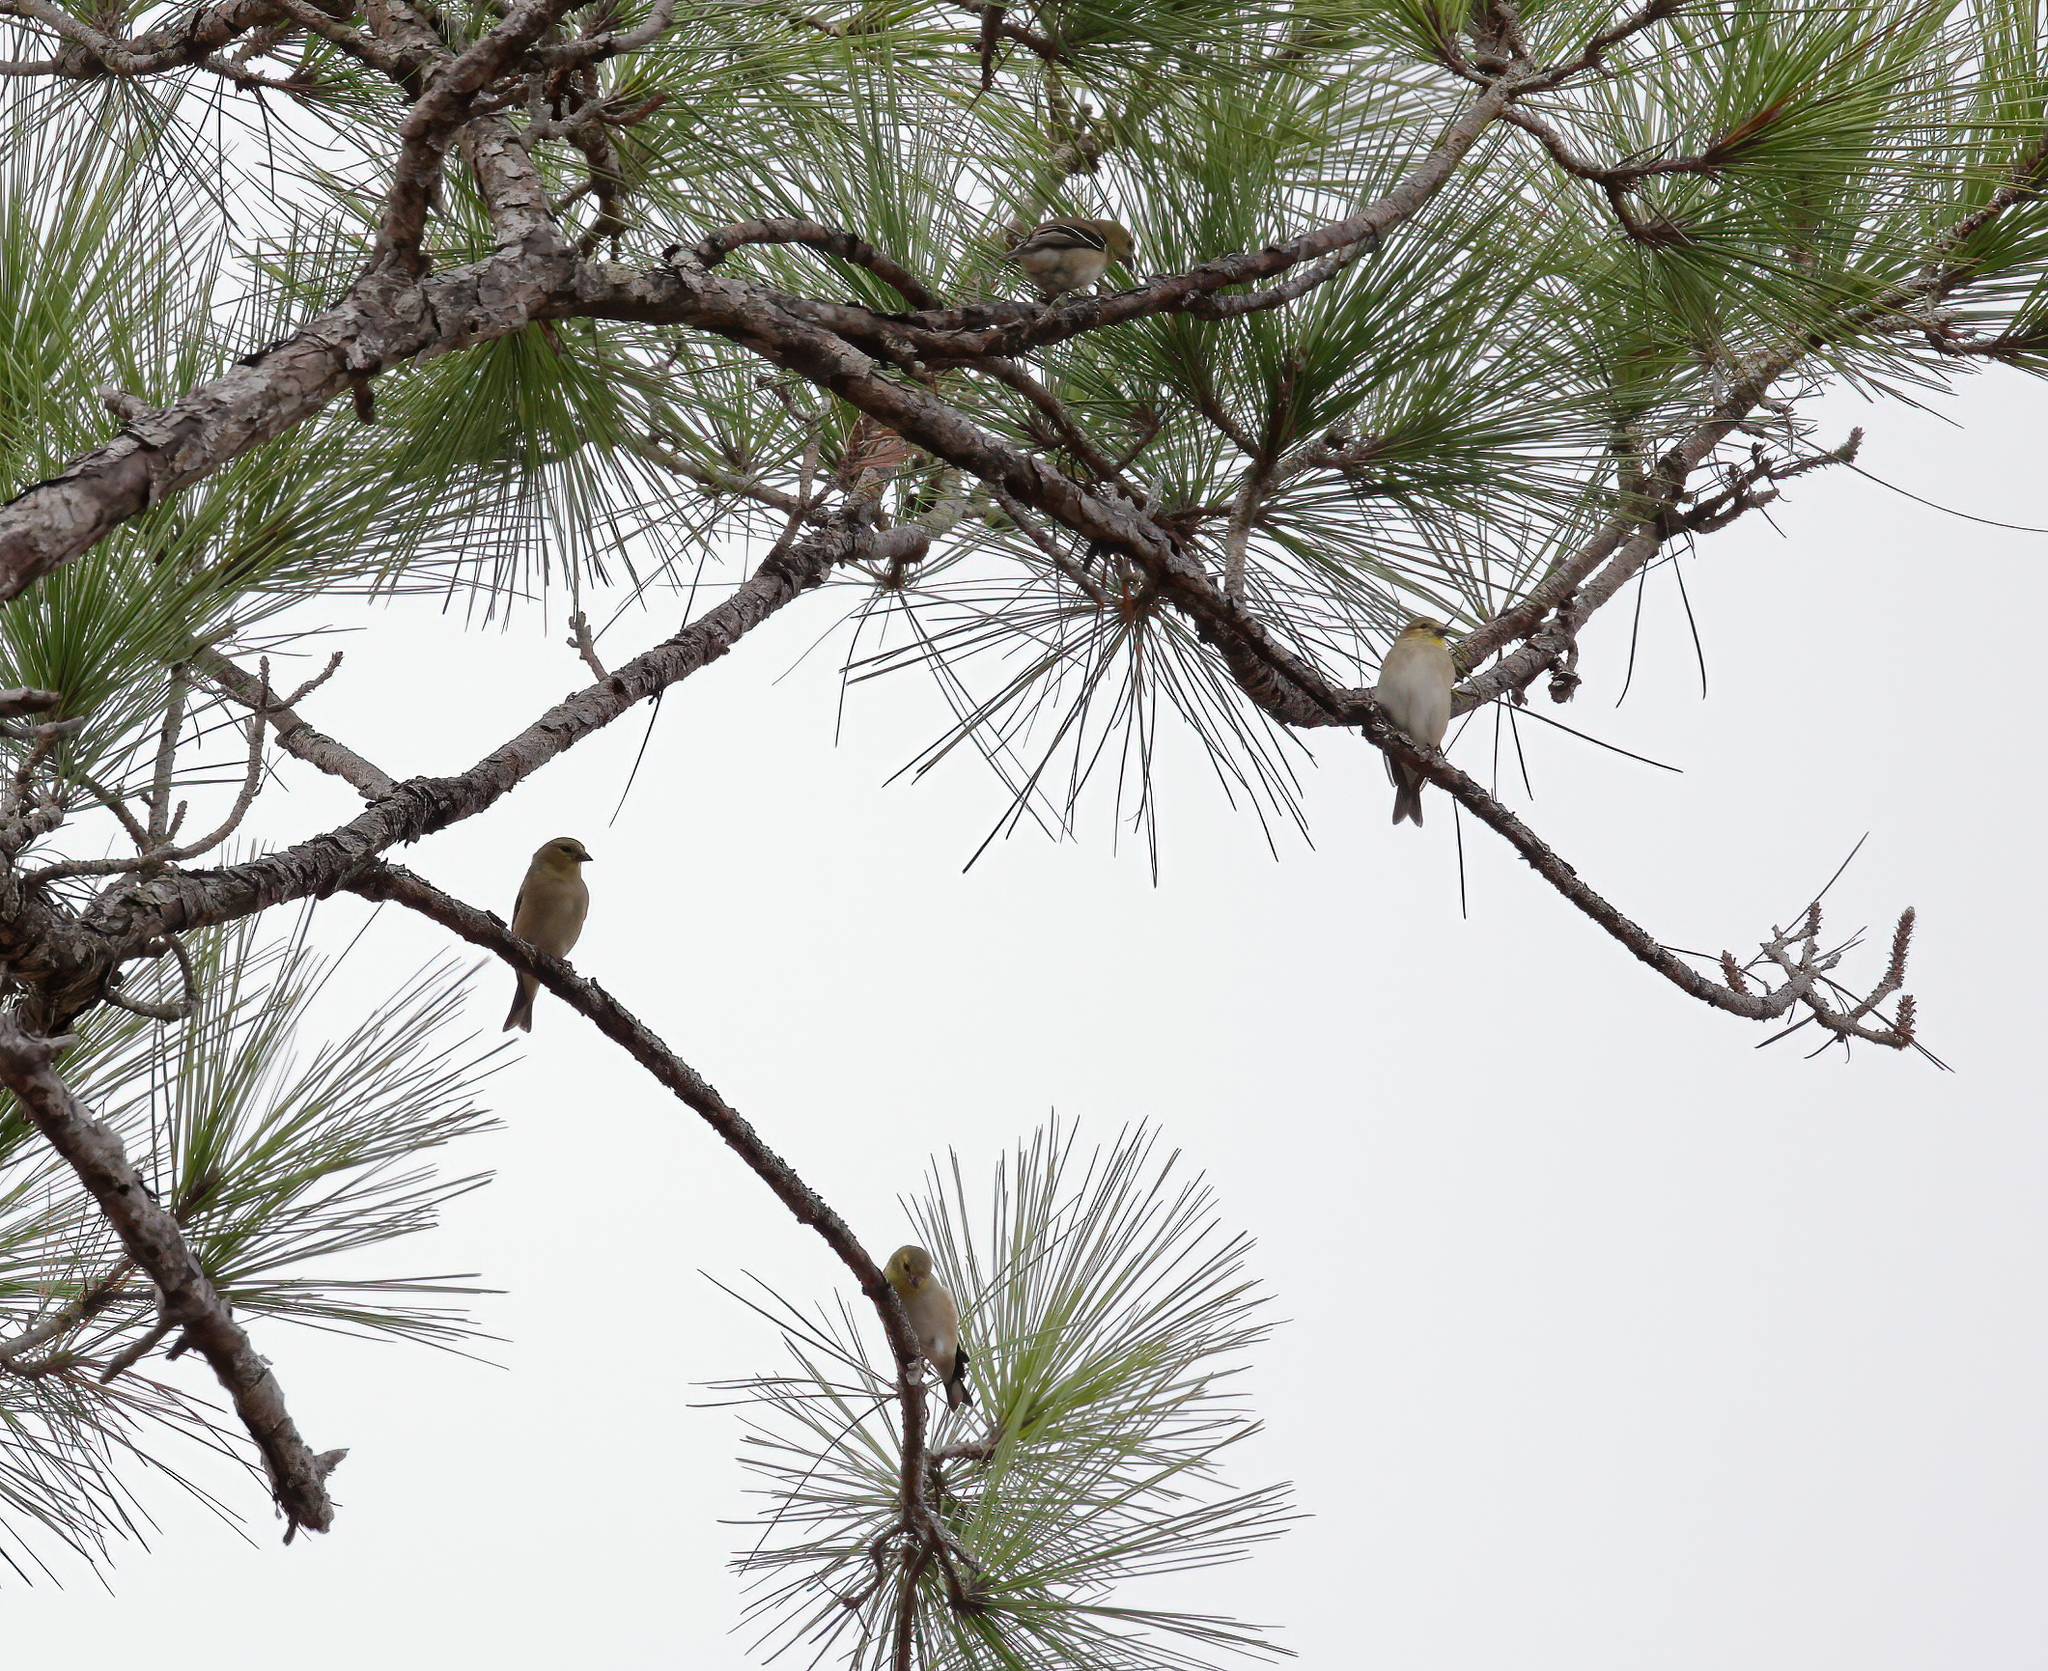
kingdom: Animalia
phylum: Chordata
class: Aves
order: Passeriformes
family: Fringillidae
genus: Spinus
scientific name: Spinus tristis
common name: American goldfinch
